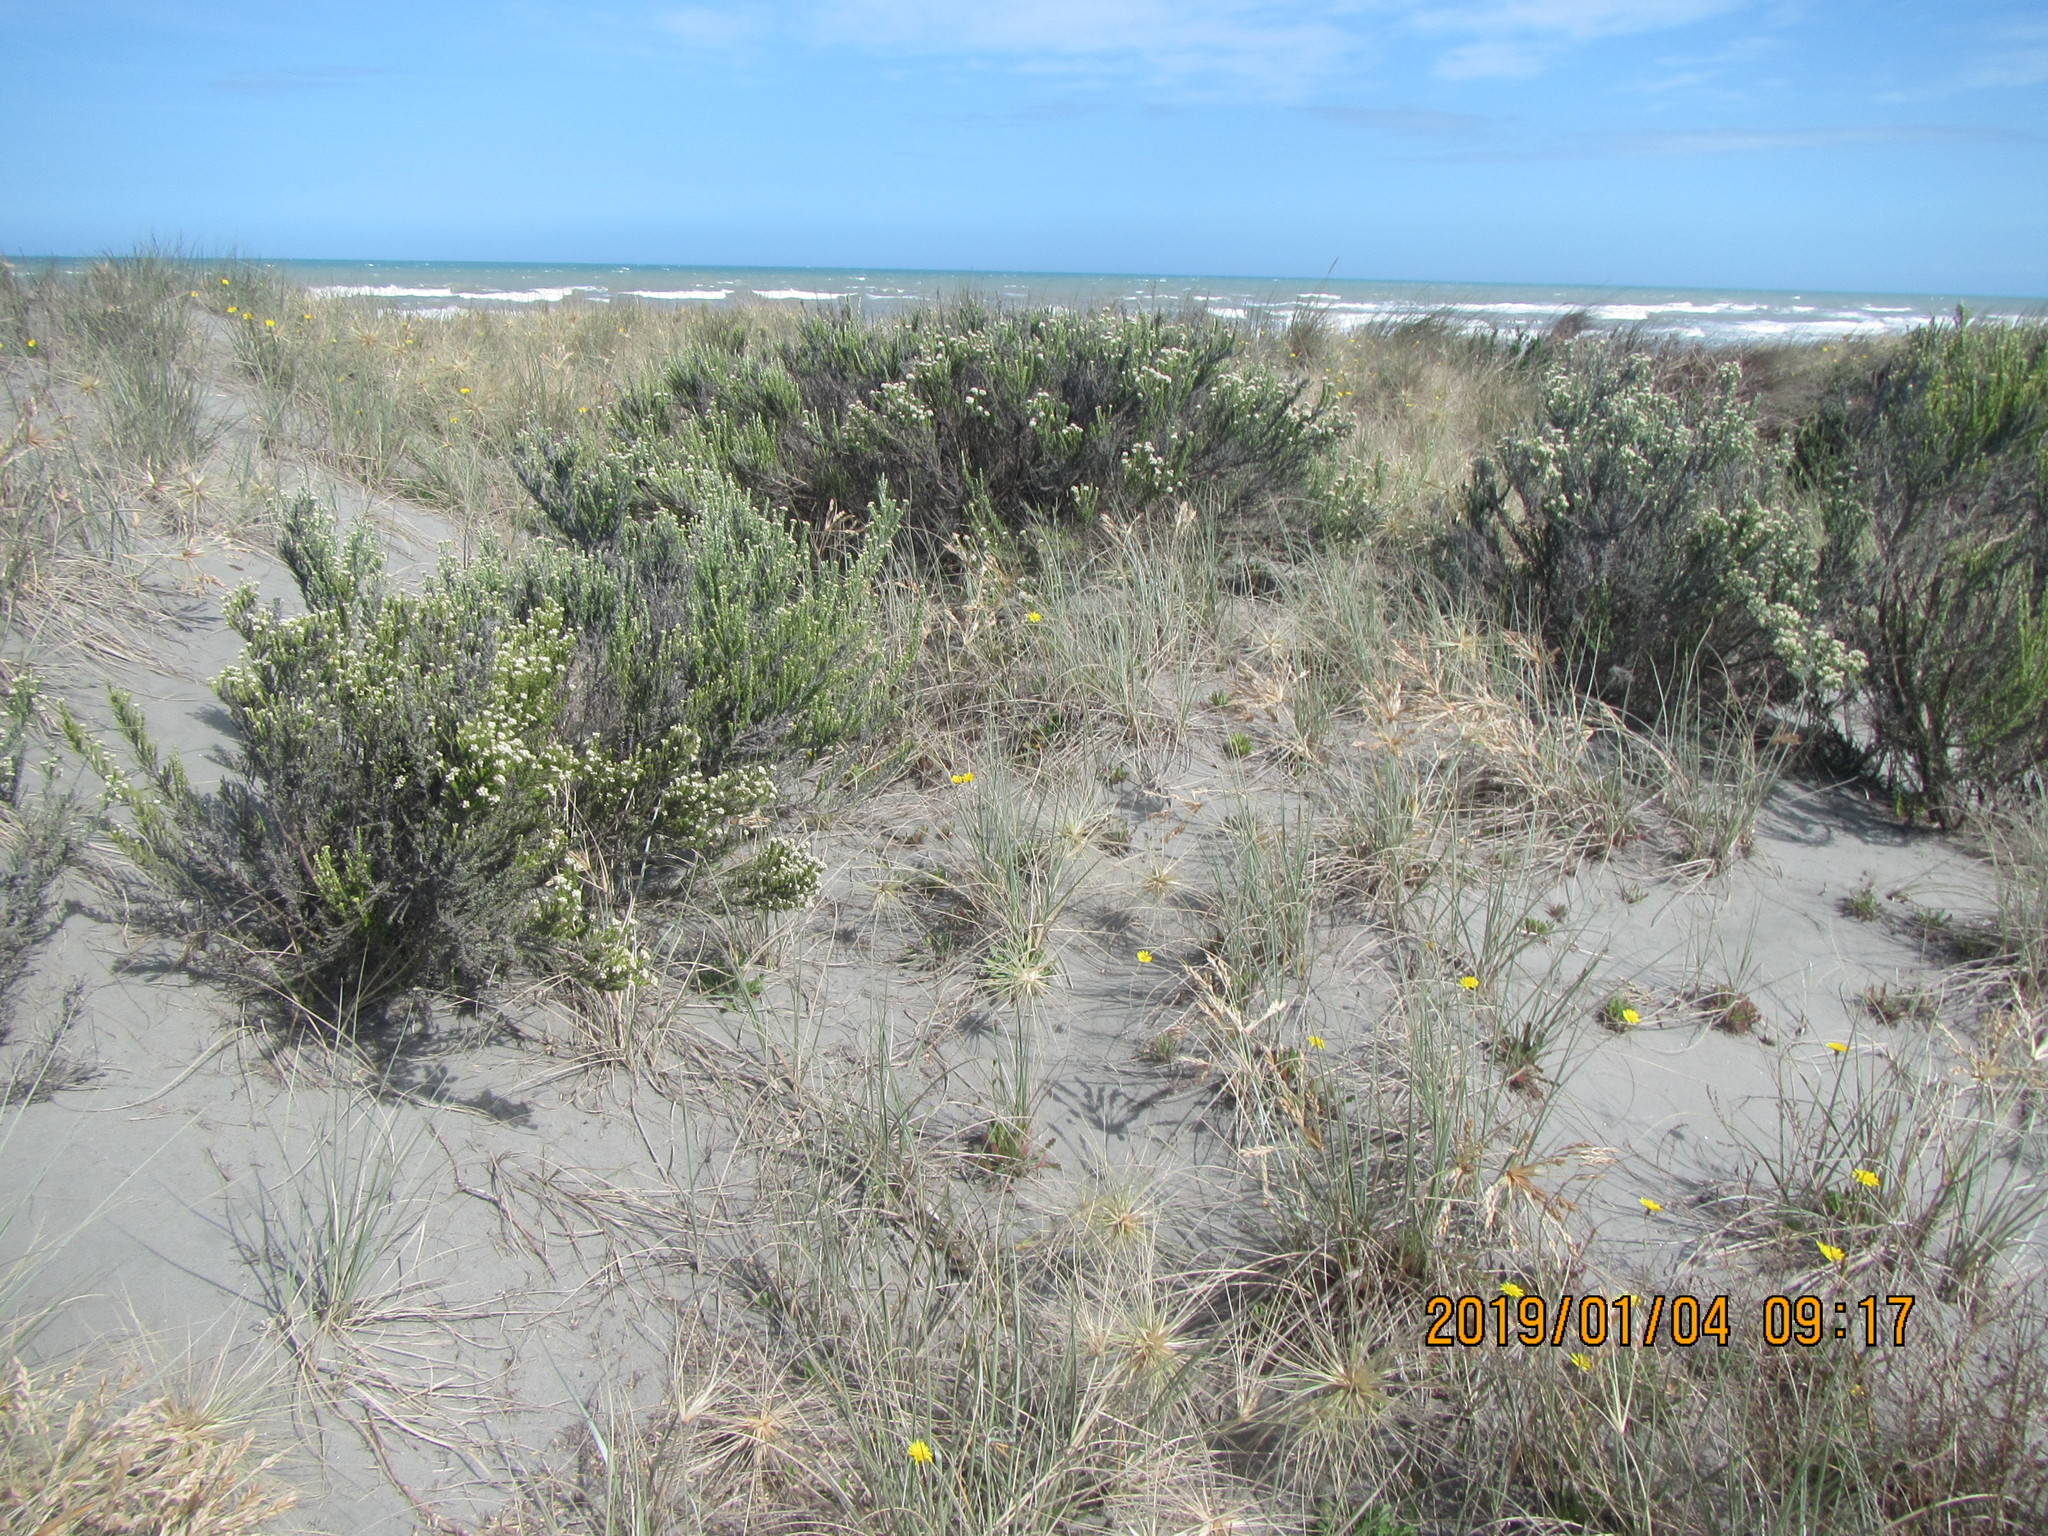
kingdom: Plantae
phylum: Tracheophyta
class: Magnoliopsida
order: Asterales
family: Asteraceae
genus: Ozothamnus
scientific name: Ozothamnus leptophyllus
